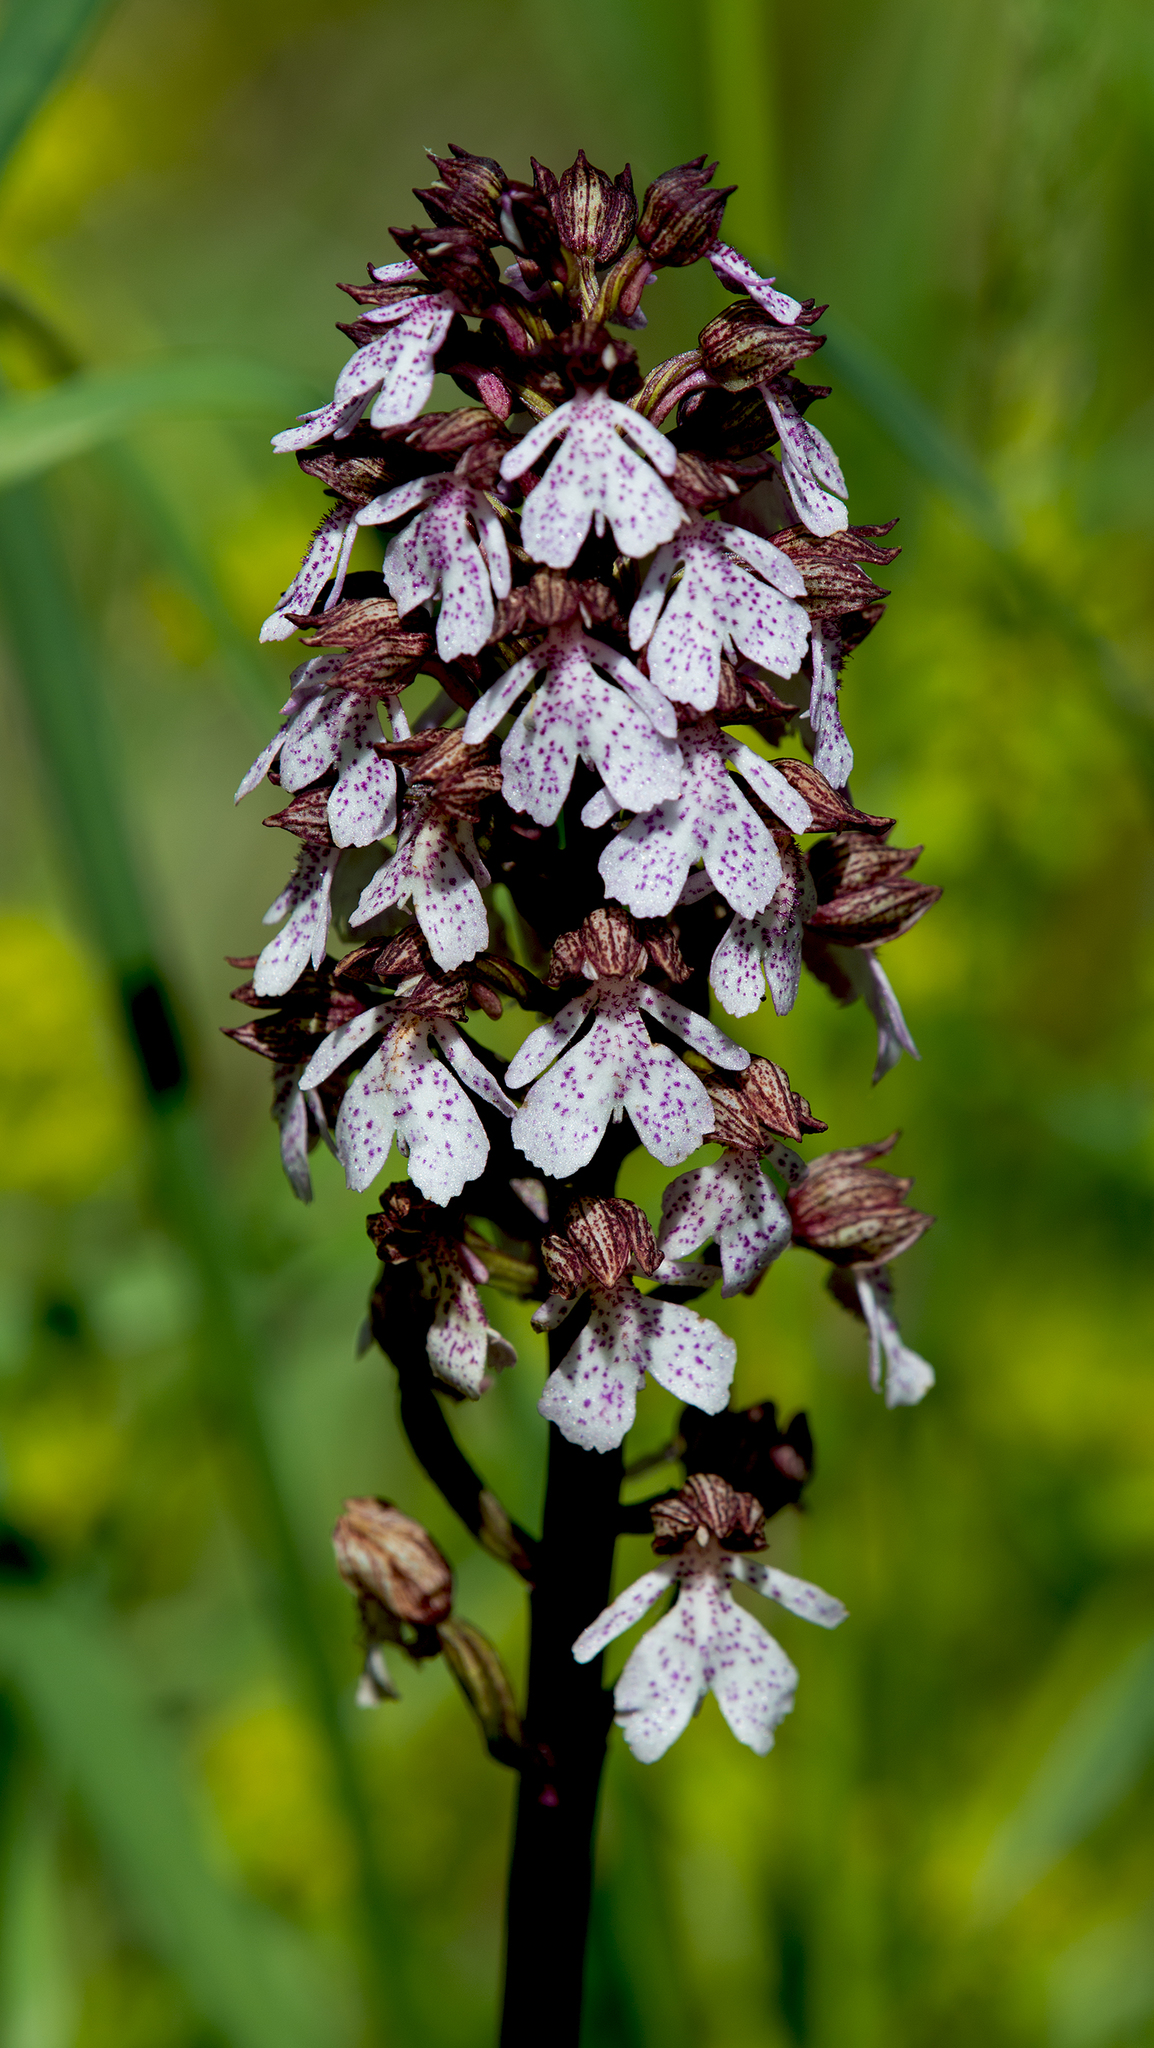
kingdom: Plantae
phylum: Tracheophyta
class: Liliopsida
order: Asparagales
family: Orchidaceae
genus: Orchis
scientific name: Orchis purpurea
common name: Lady orchid
